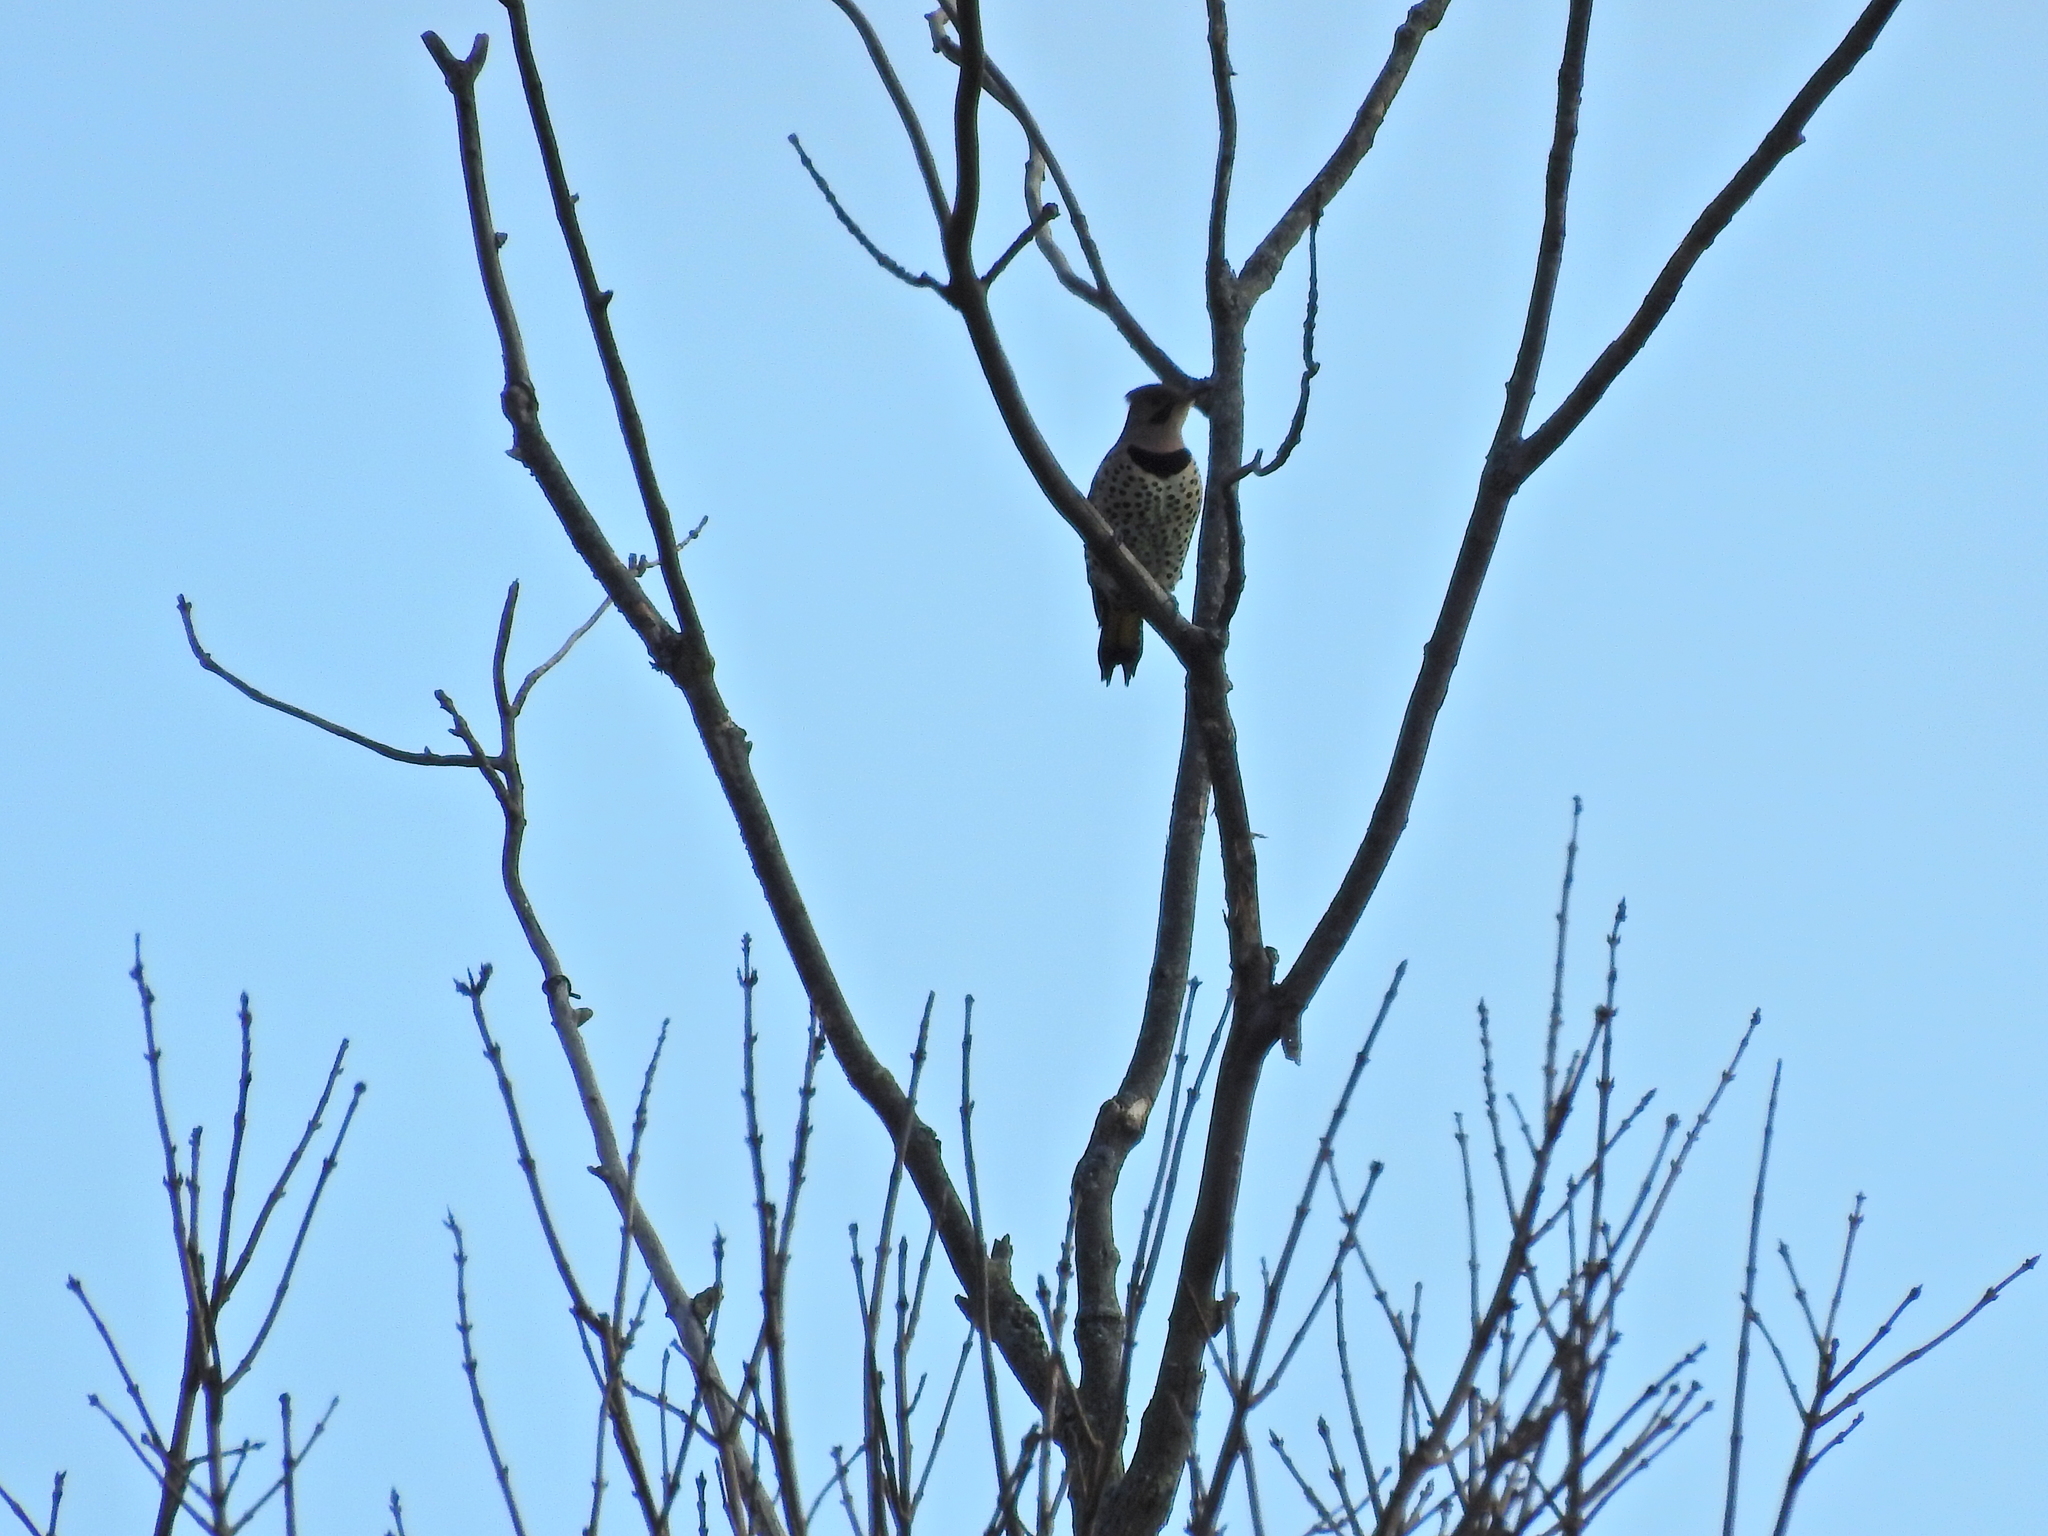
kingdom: Animalia
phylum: Chordata
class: Aves
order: Piciformes
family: Picidae
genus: Colaptes
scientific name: Colaptes auratus
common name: Northern flicker
